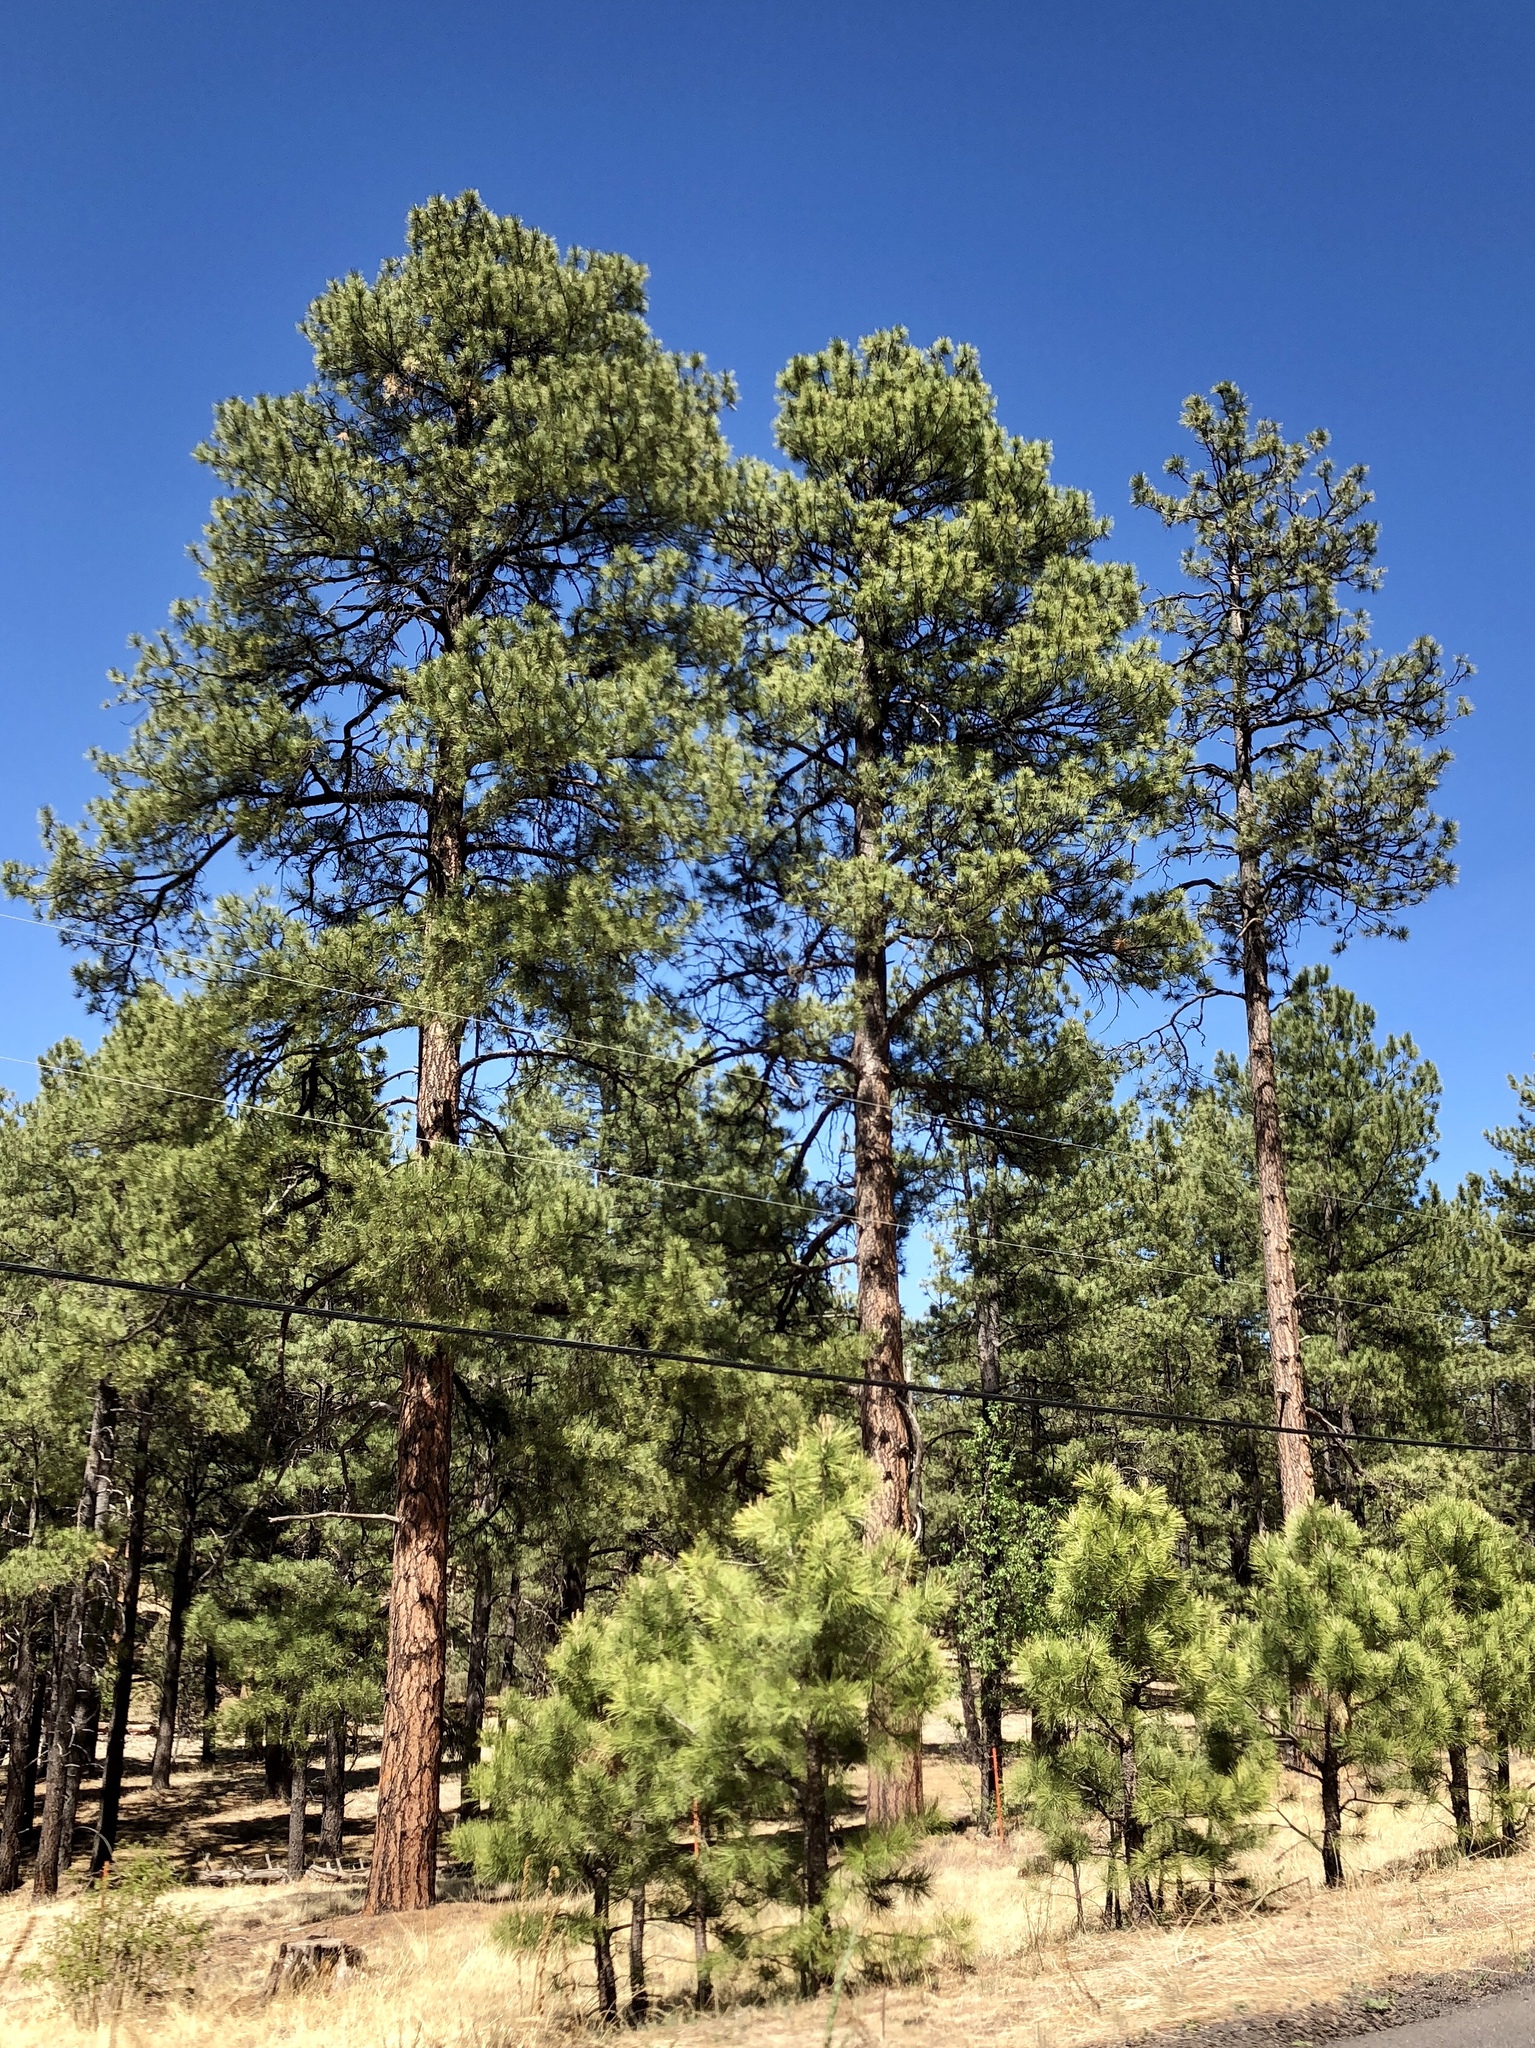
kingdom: Plantae
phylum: Tracheophyta
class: Pinopsida
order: Pinales
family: Pinaceae
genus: Pinus
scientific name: Pinus ponderosa
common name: Western yellow-pine
